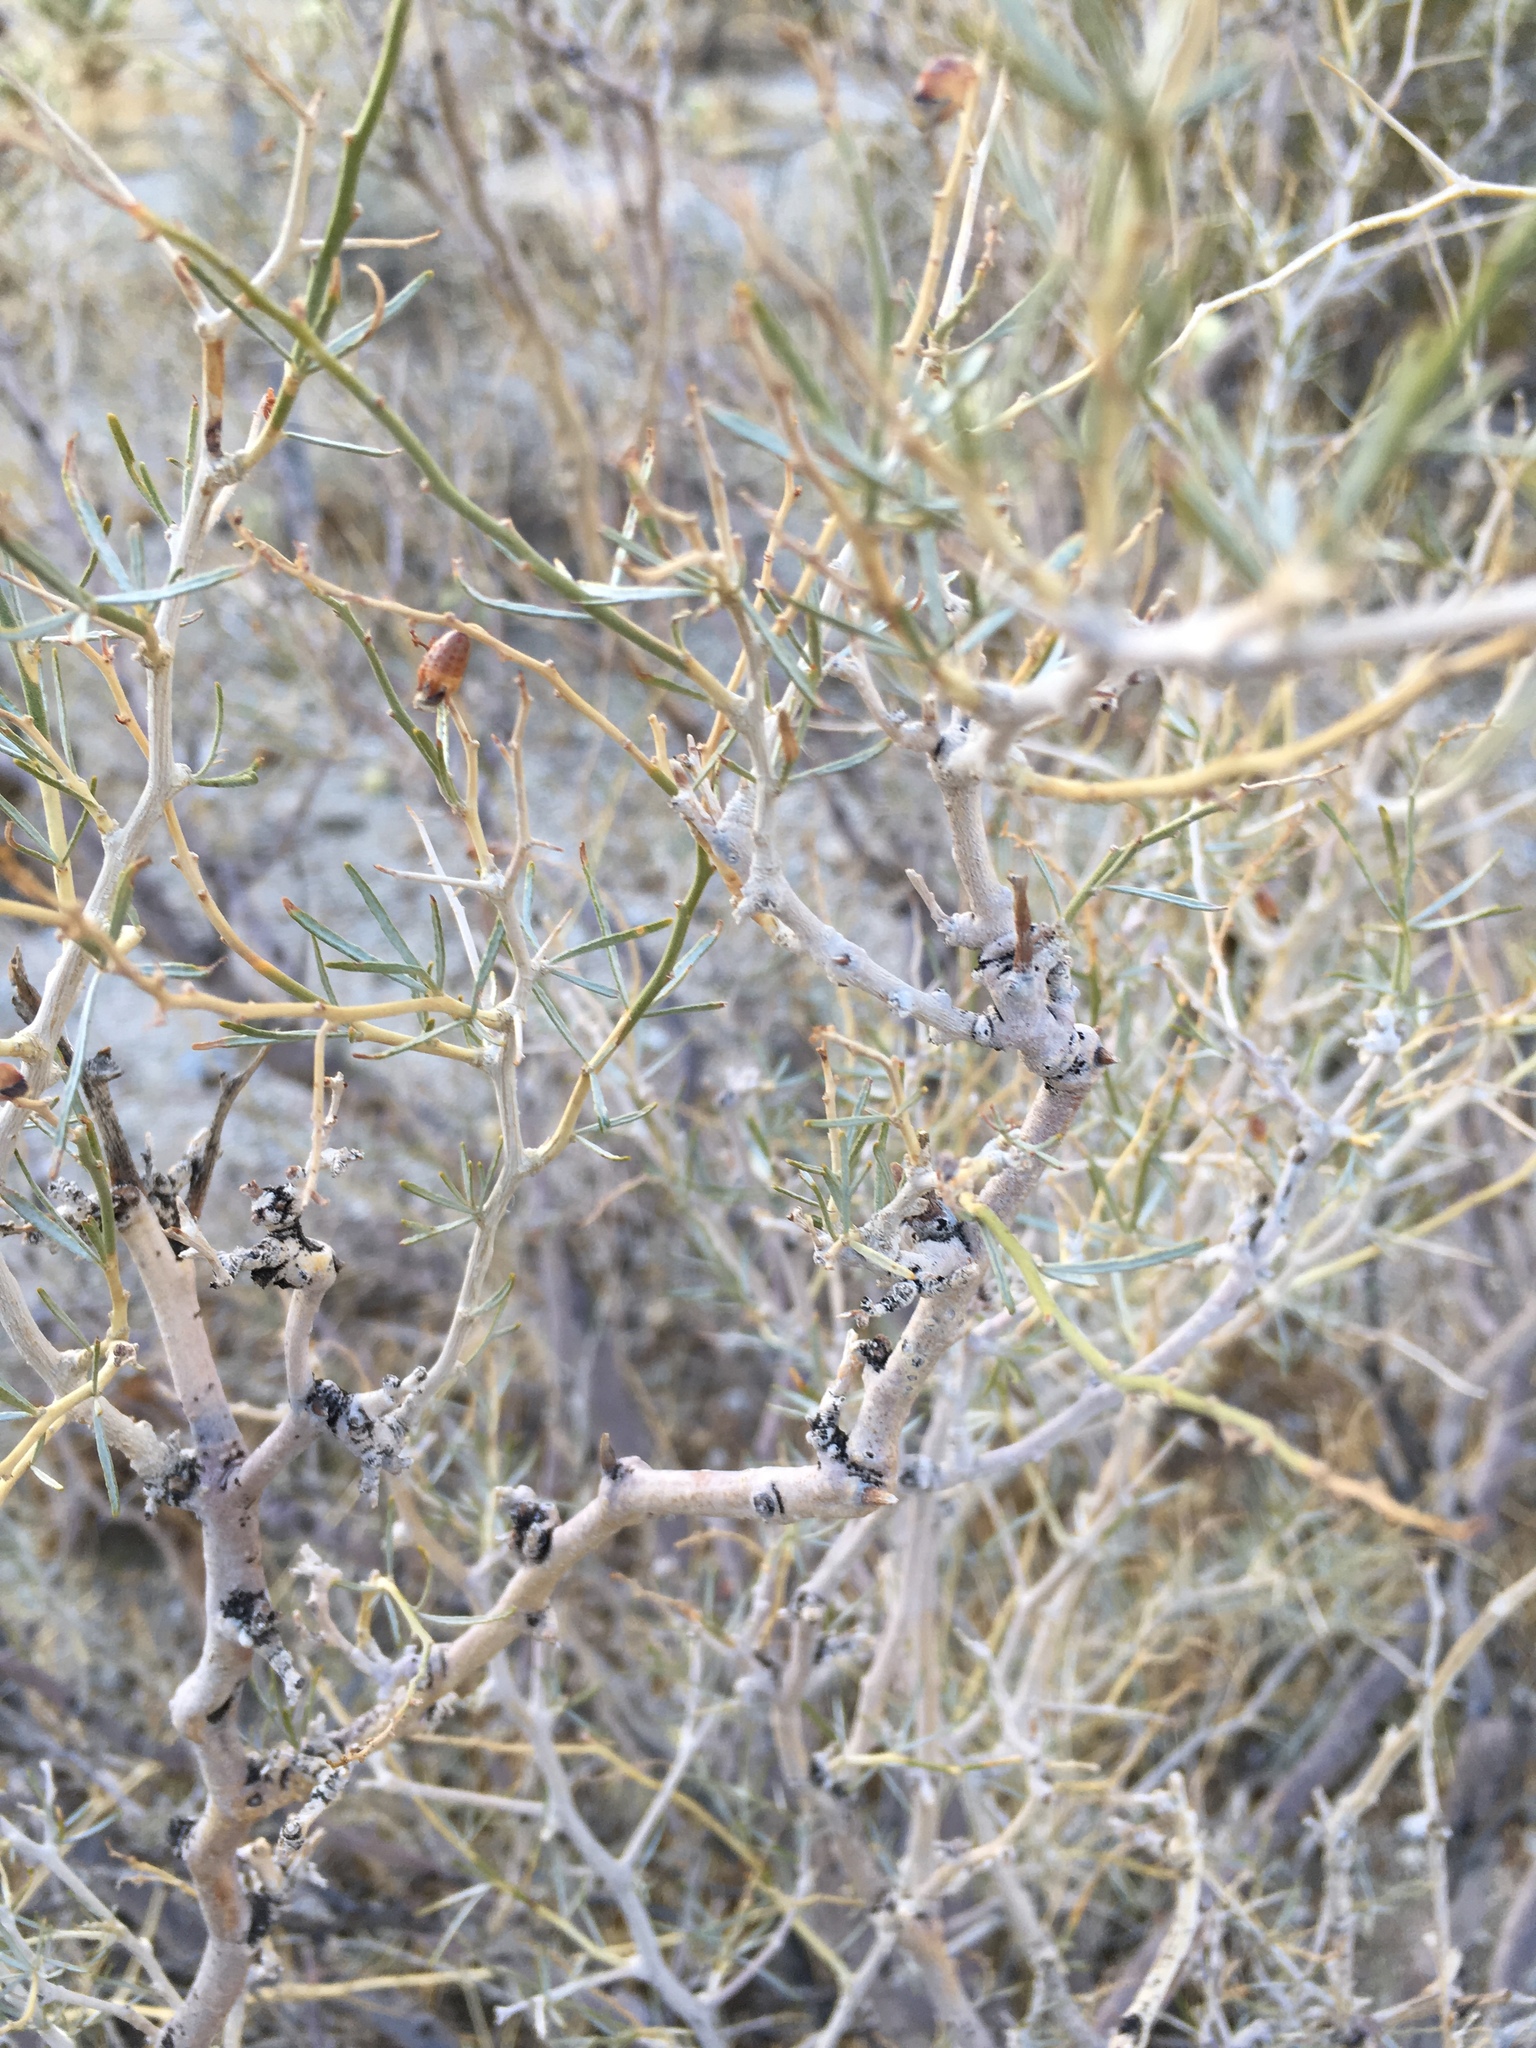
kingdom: Plantae
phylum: Tracheophyta
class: Magnoliopsida
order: Fabales
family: Fabaceae
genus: Psorothamnus
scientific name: Psorothamnus schottii
